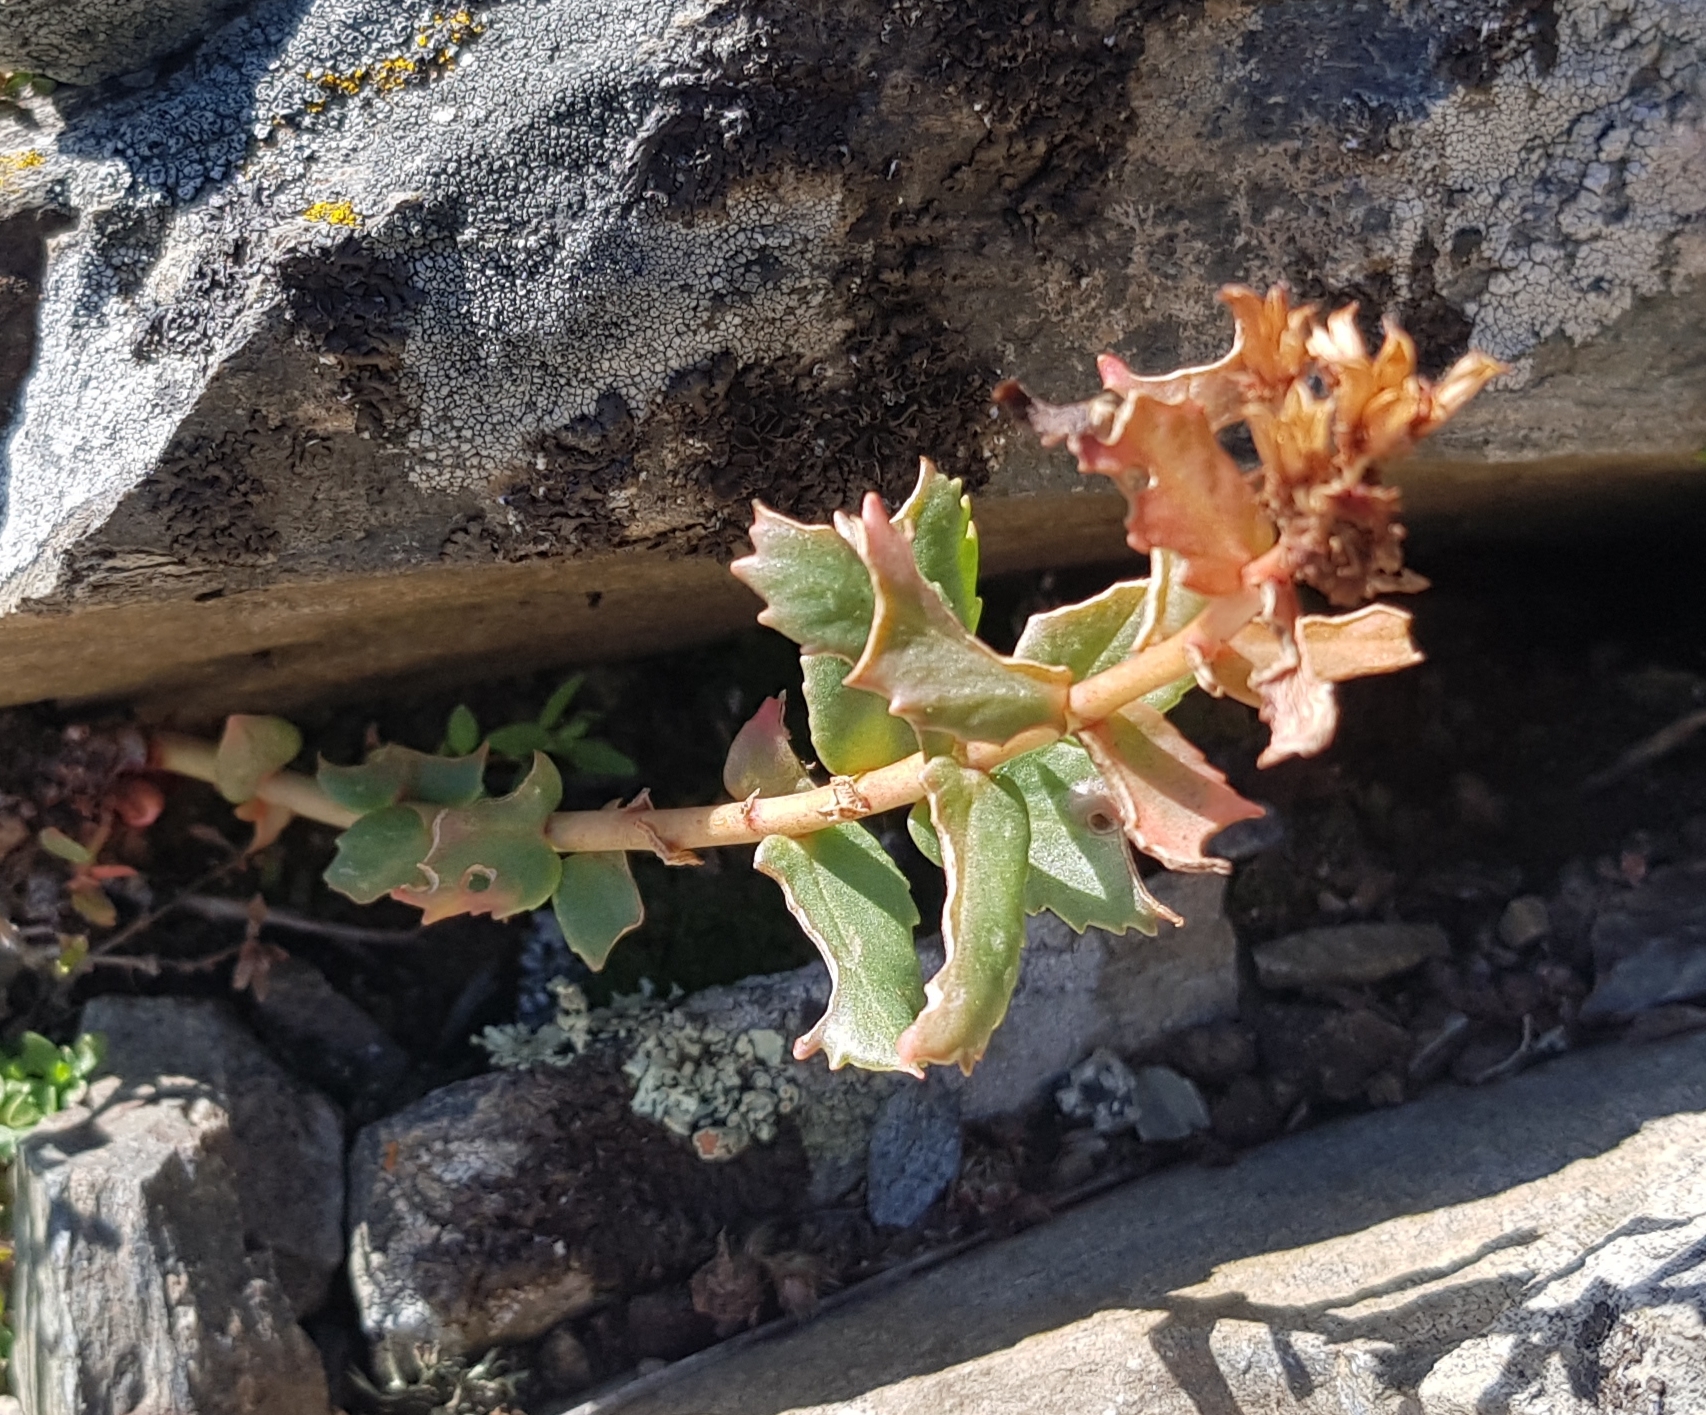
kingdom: Plantae
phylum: Tracheophyta
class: Magnoliopsida
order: Saxifragales
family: Crassulaceae
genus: Rhodiola
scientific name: Rhodiola rosea
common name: Roseroot
